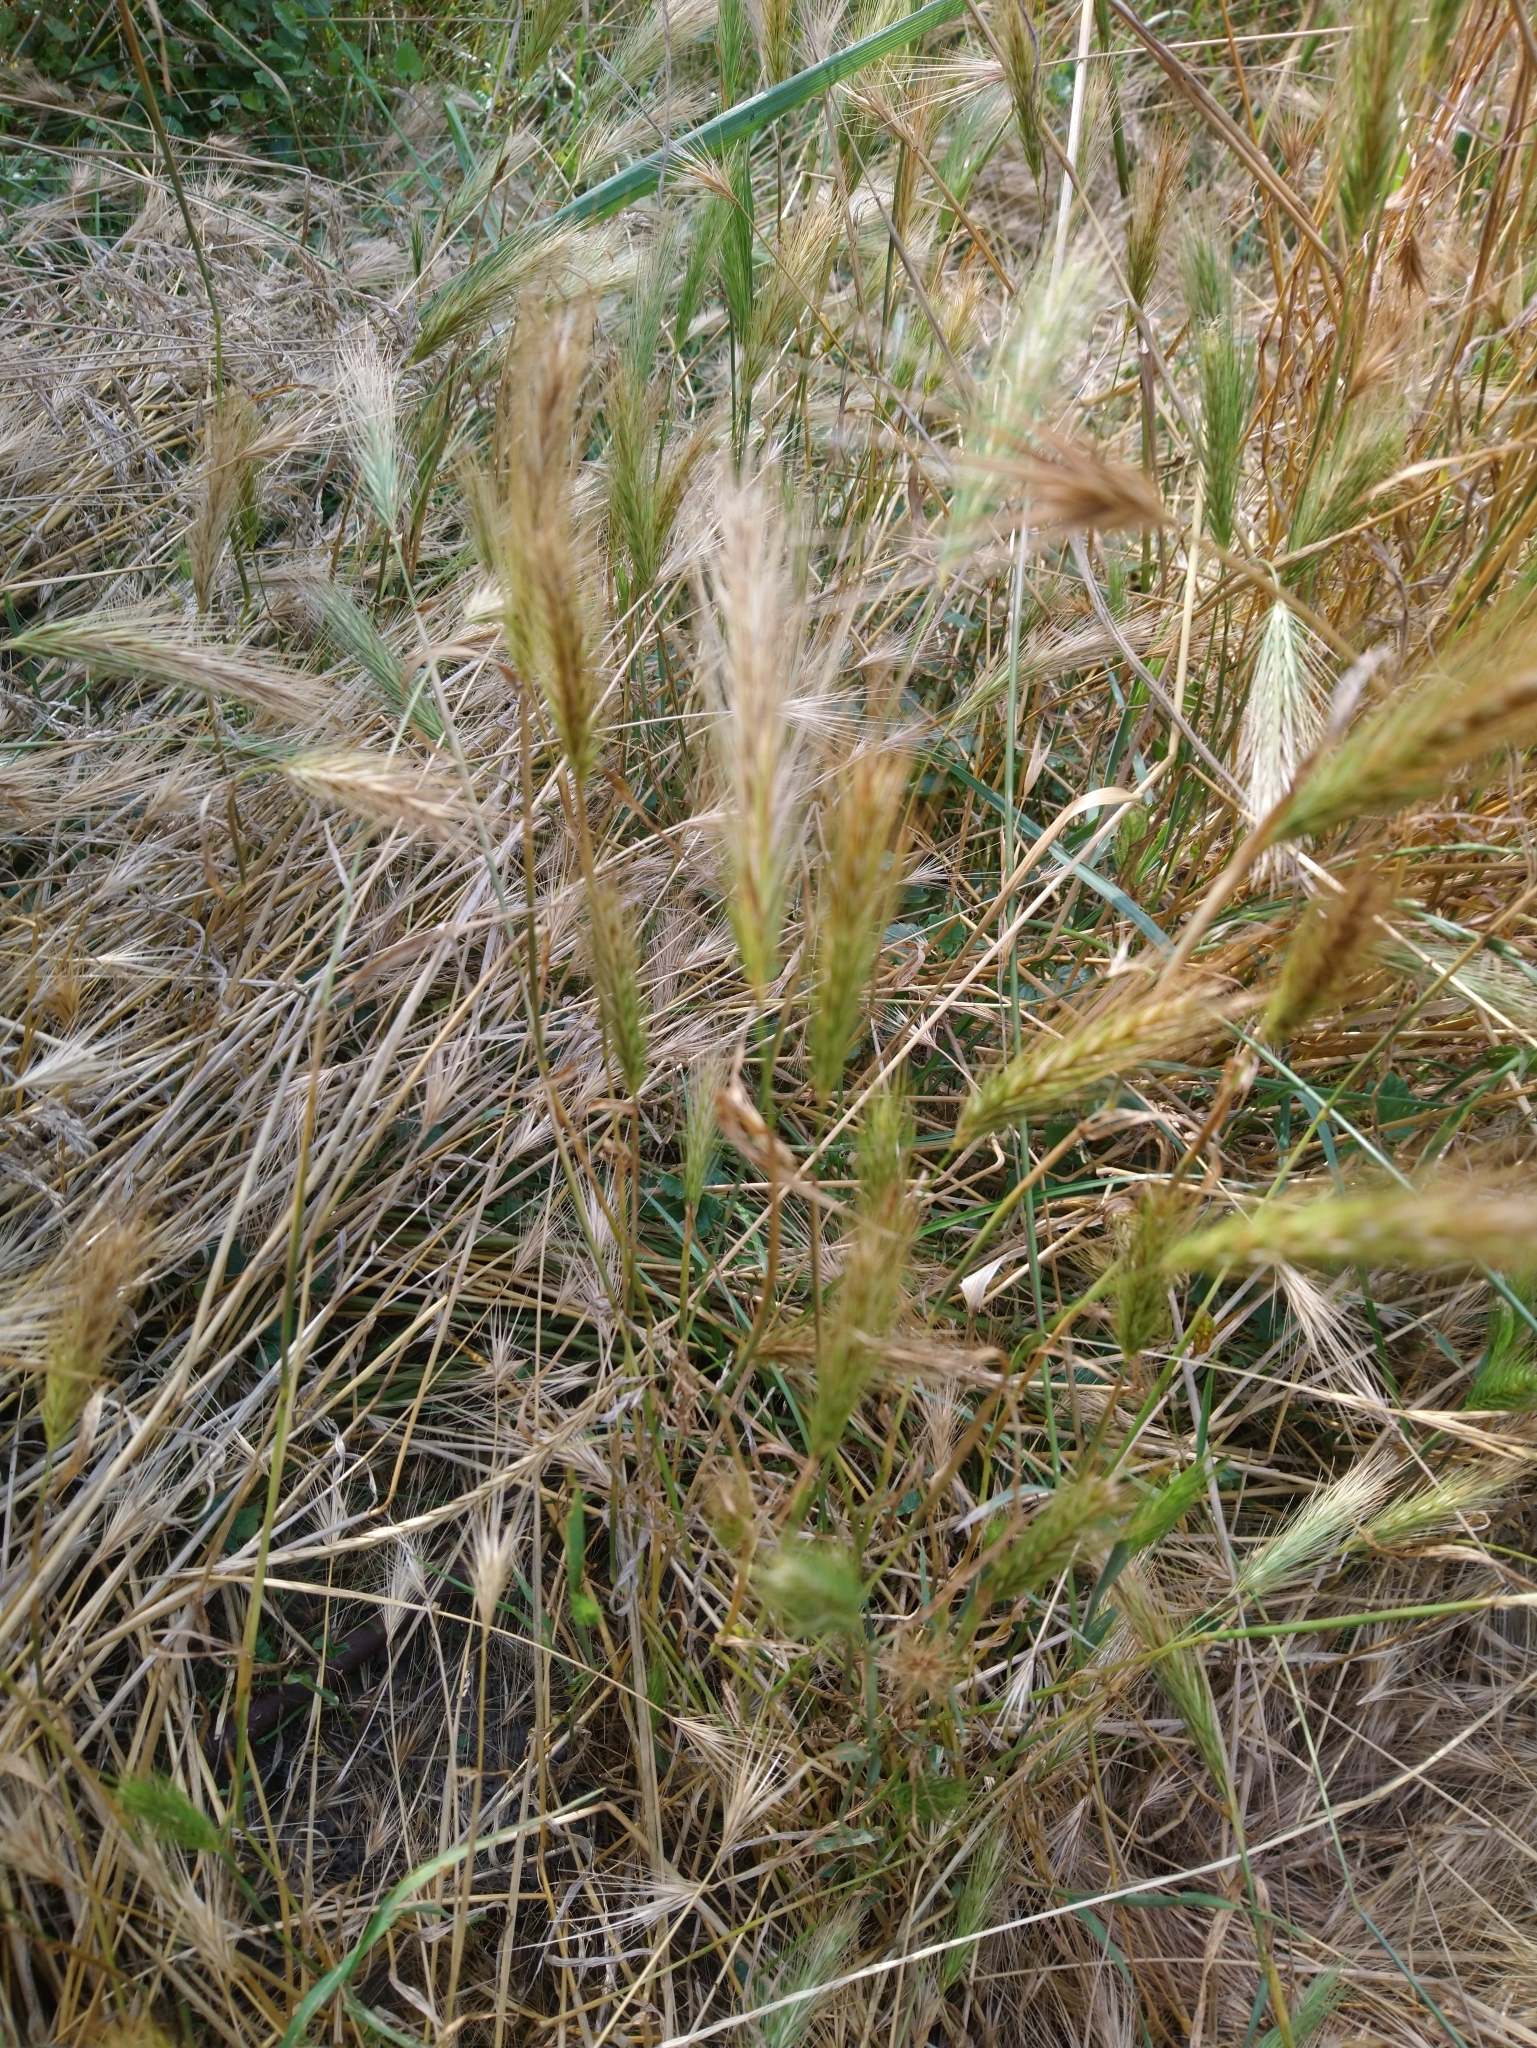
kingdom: Plantae
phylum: Tracheophyta
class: Liliopsida
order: Poales
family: Poaceae
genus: Hordeum
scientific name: Hordeum murinum
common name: Wall barley
